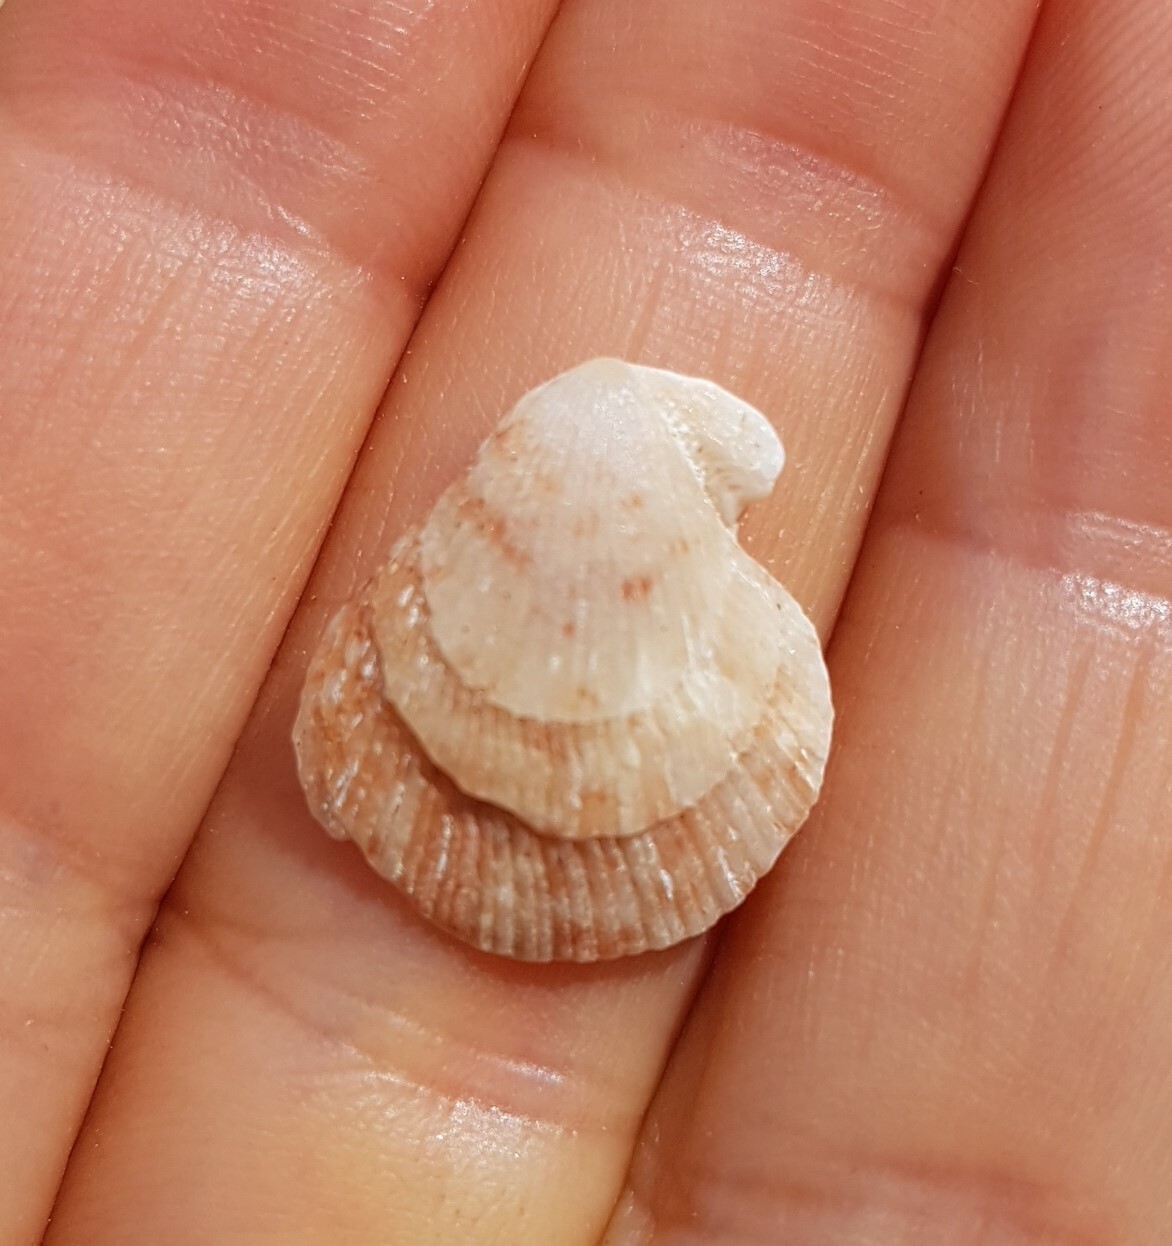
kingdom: Animalia
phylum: Mollusca
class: Bivalvia
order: Pectinida
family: Pectinidae
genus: Talochlamys
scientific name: Talochlamys pusio
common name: Hunchback scallop
